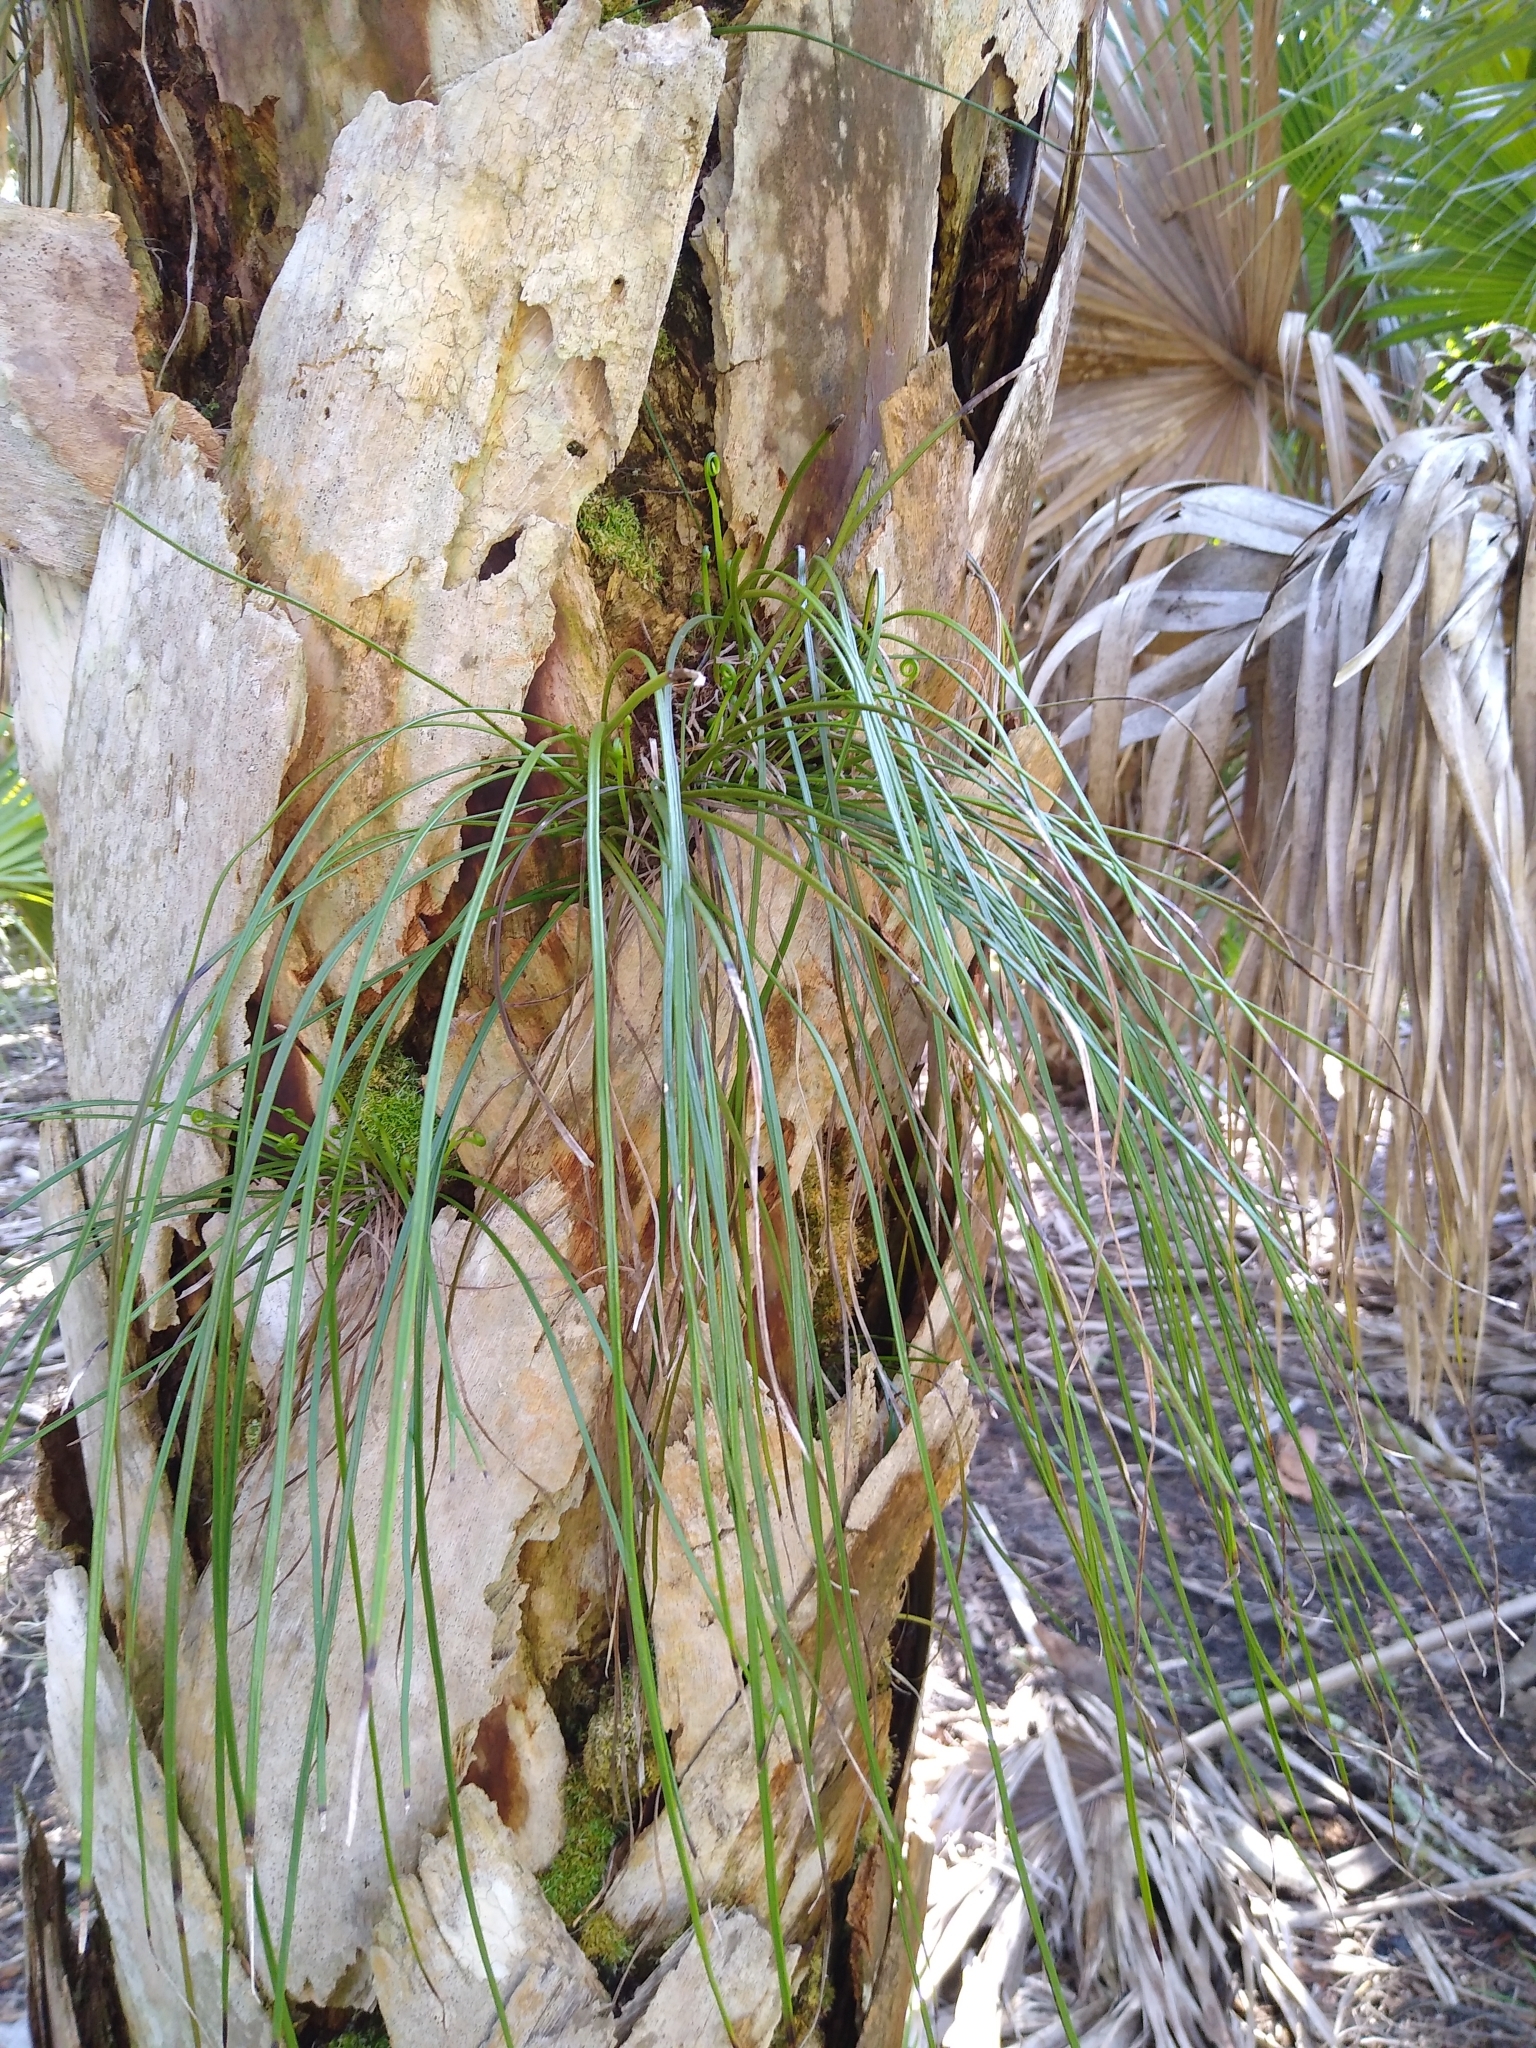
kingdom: Plantae
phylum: Tracheophyta
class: Polypodiopsida
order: Polypodiales
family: Pteridaceae
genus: Vittaria
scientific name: Vittaria lineata
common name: Shoestring fern
